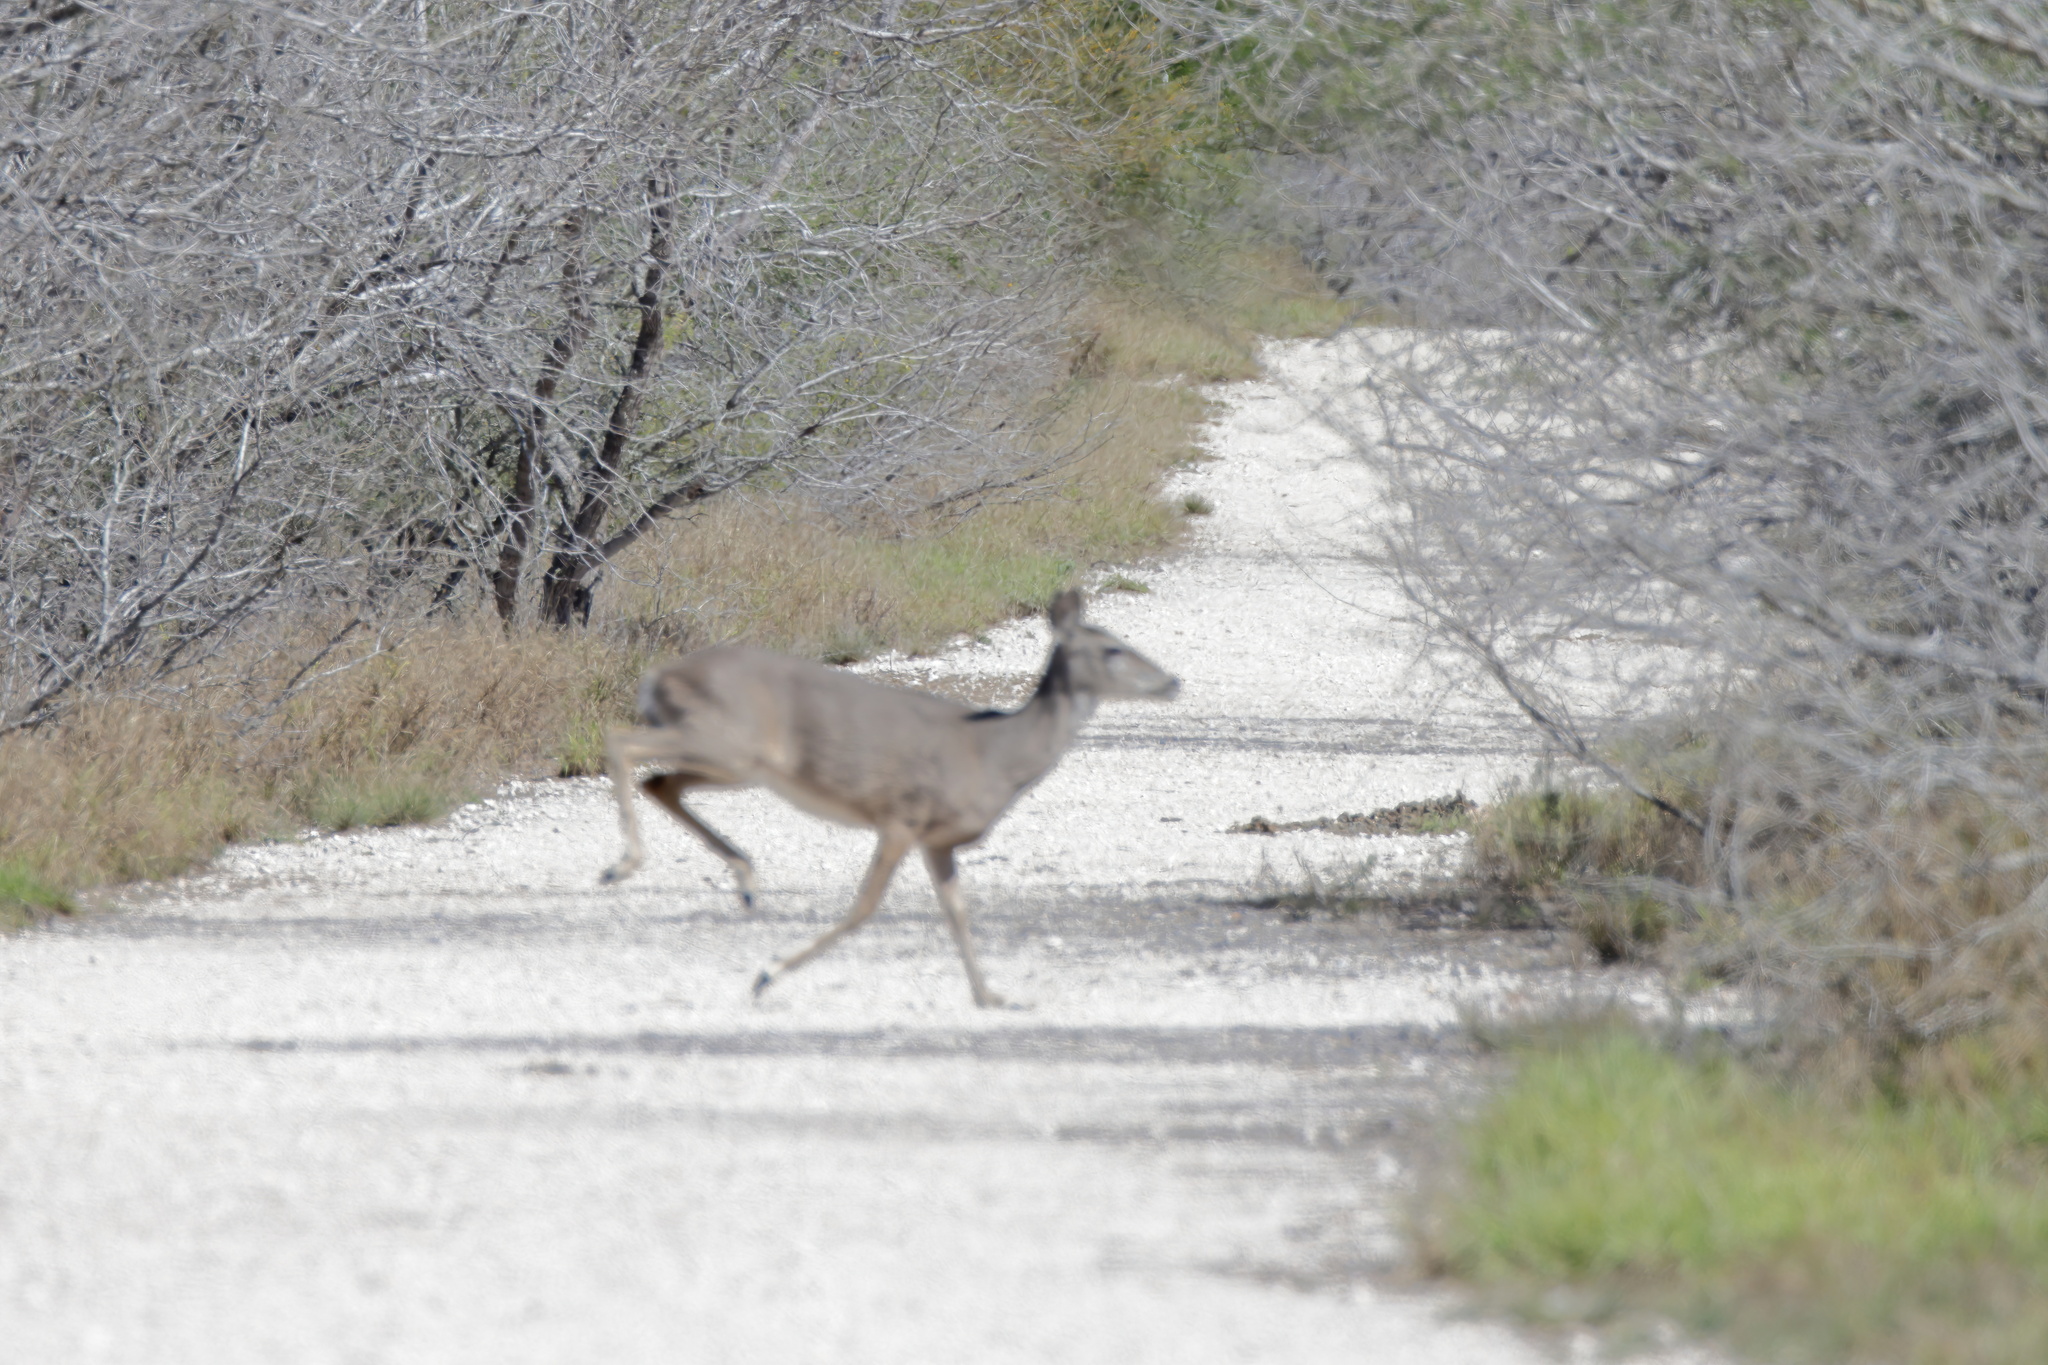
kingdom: Animalia
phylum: Chordata
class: Mammalia
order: Artiodactyla
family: Cervidae
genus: Odocoileus
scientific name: Odocoileus virginianus
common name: White-tailed deer
